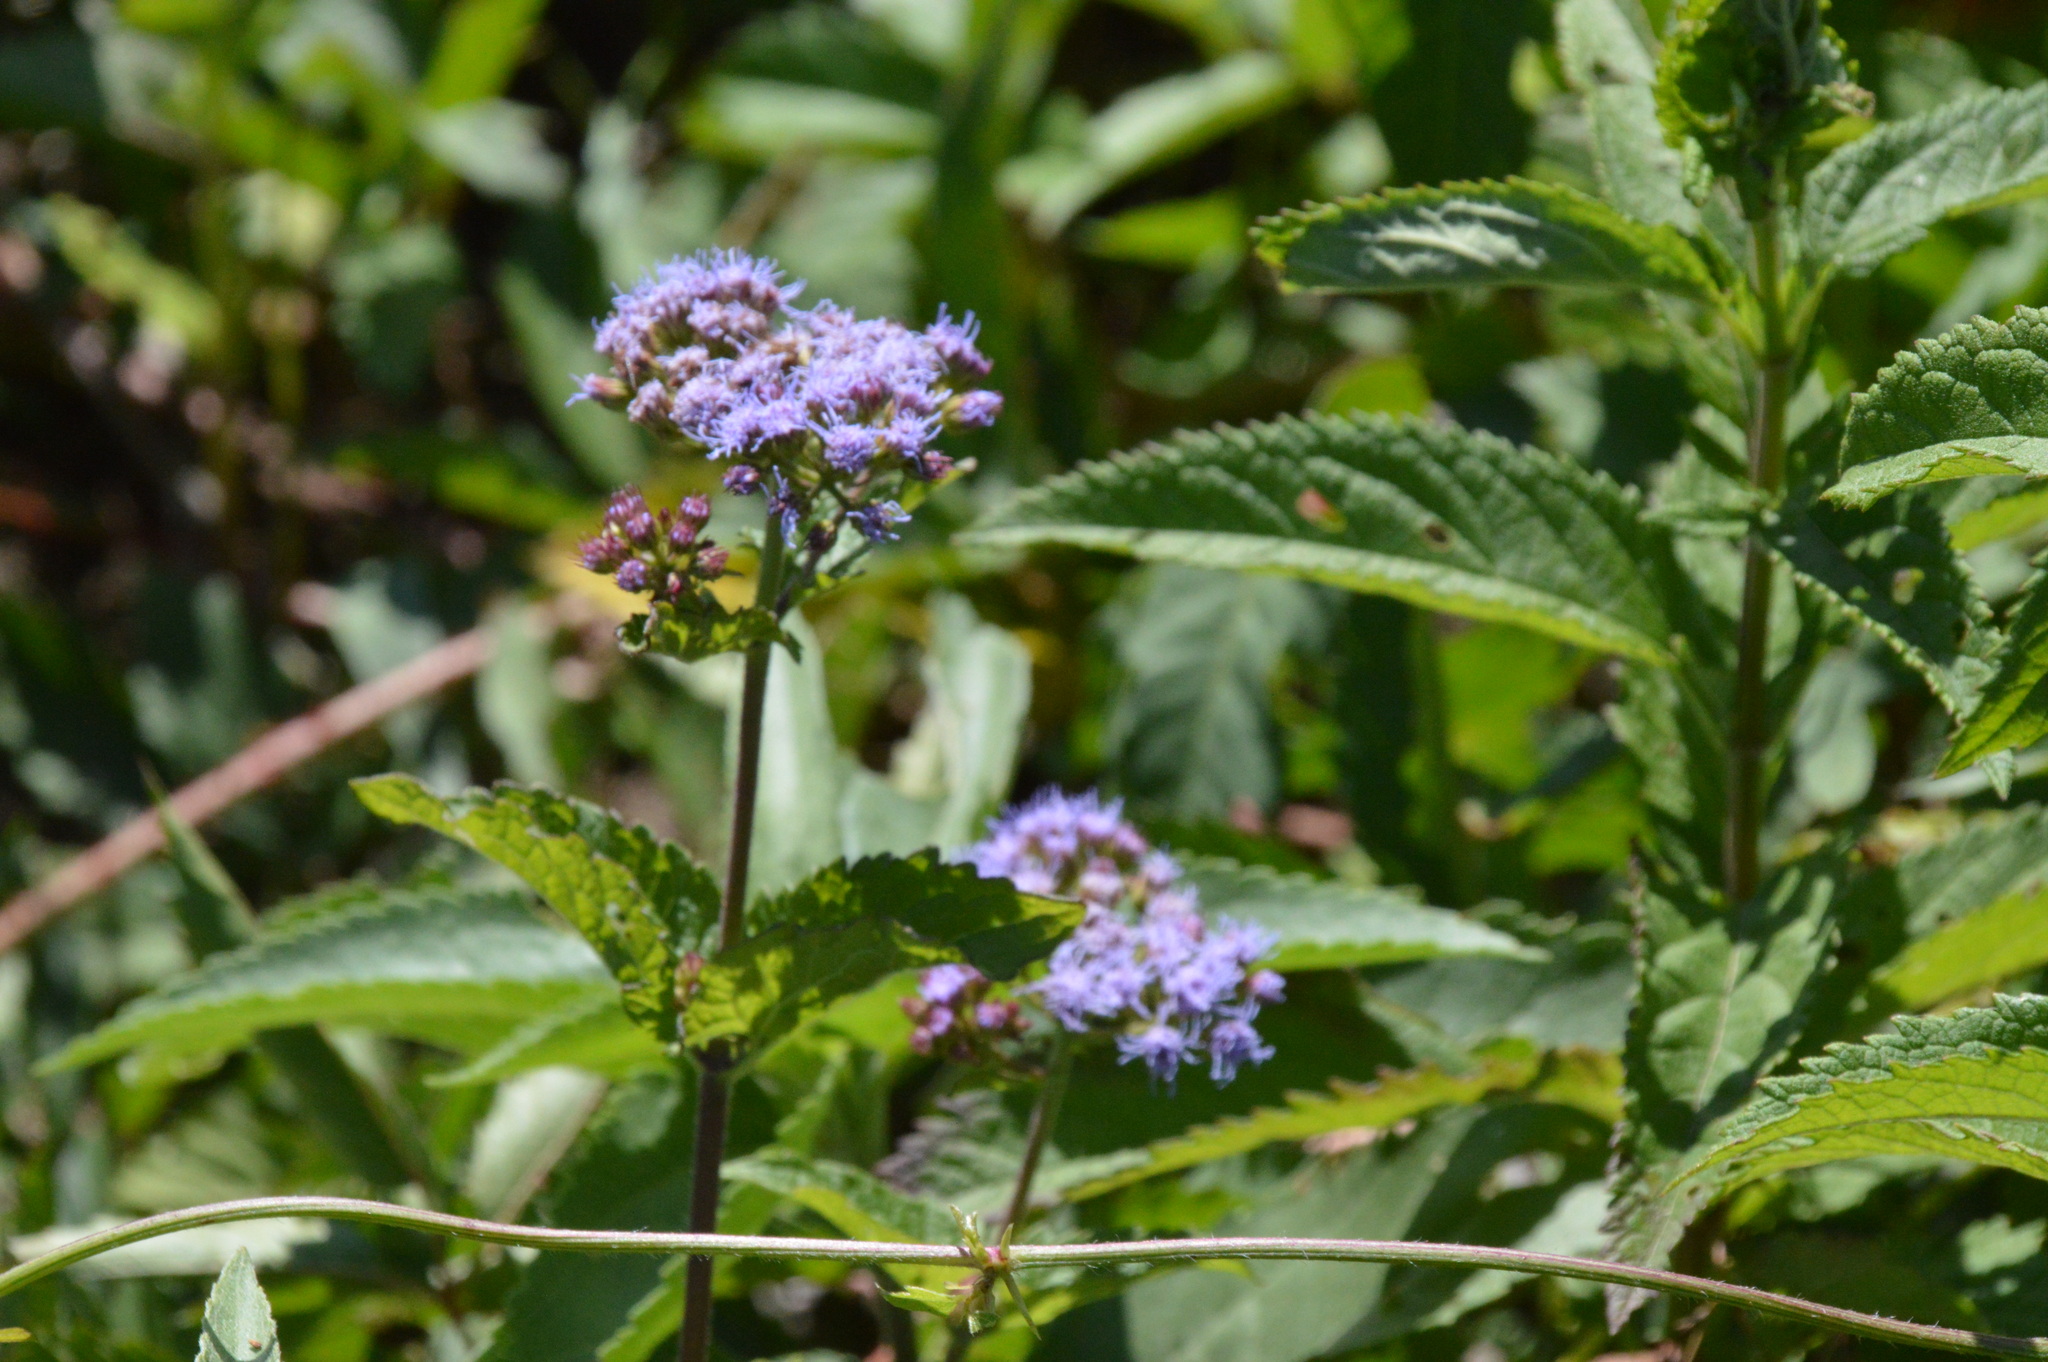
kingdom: Plantae
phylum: Tracheophyta
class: Magnoliopsida
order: Asterales
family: Asteraceae
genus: Conoclinium
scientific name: Conoclinium coelestinum
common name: Blue mistflower
